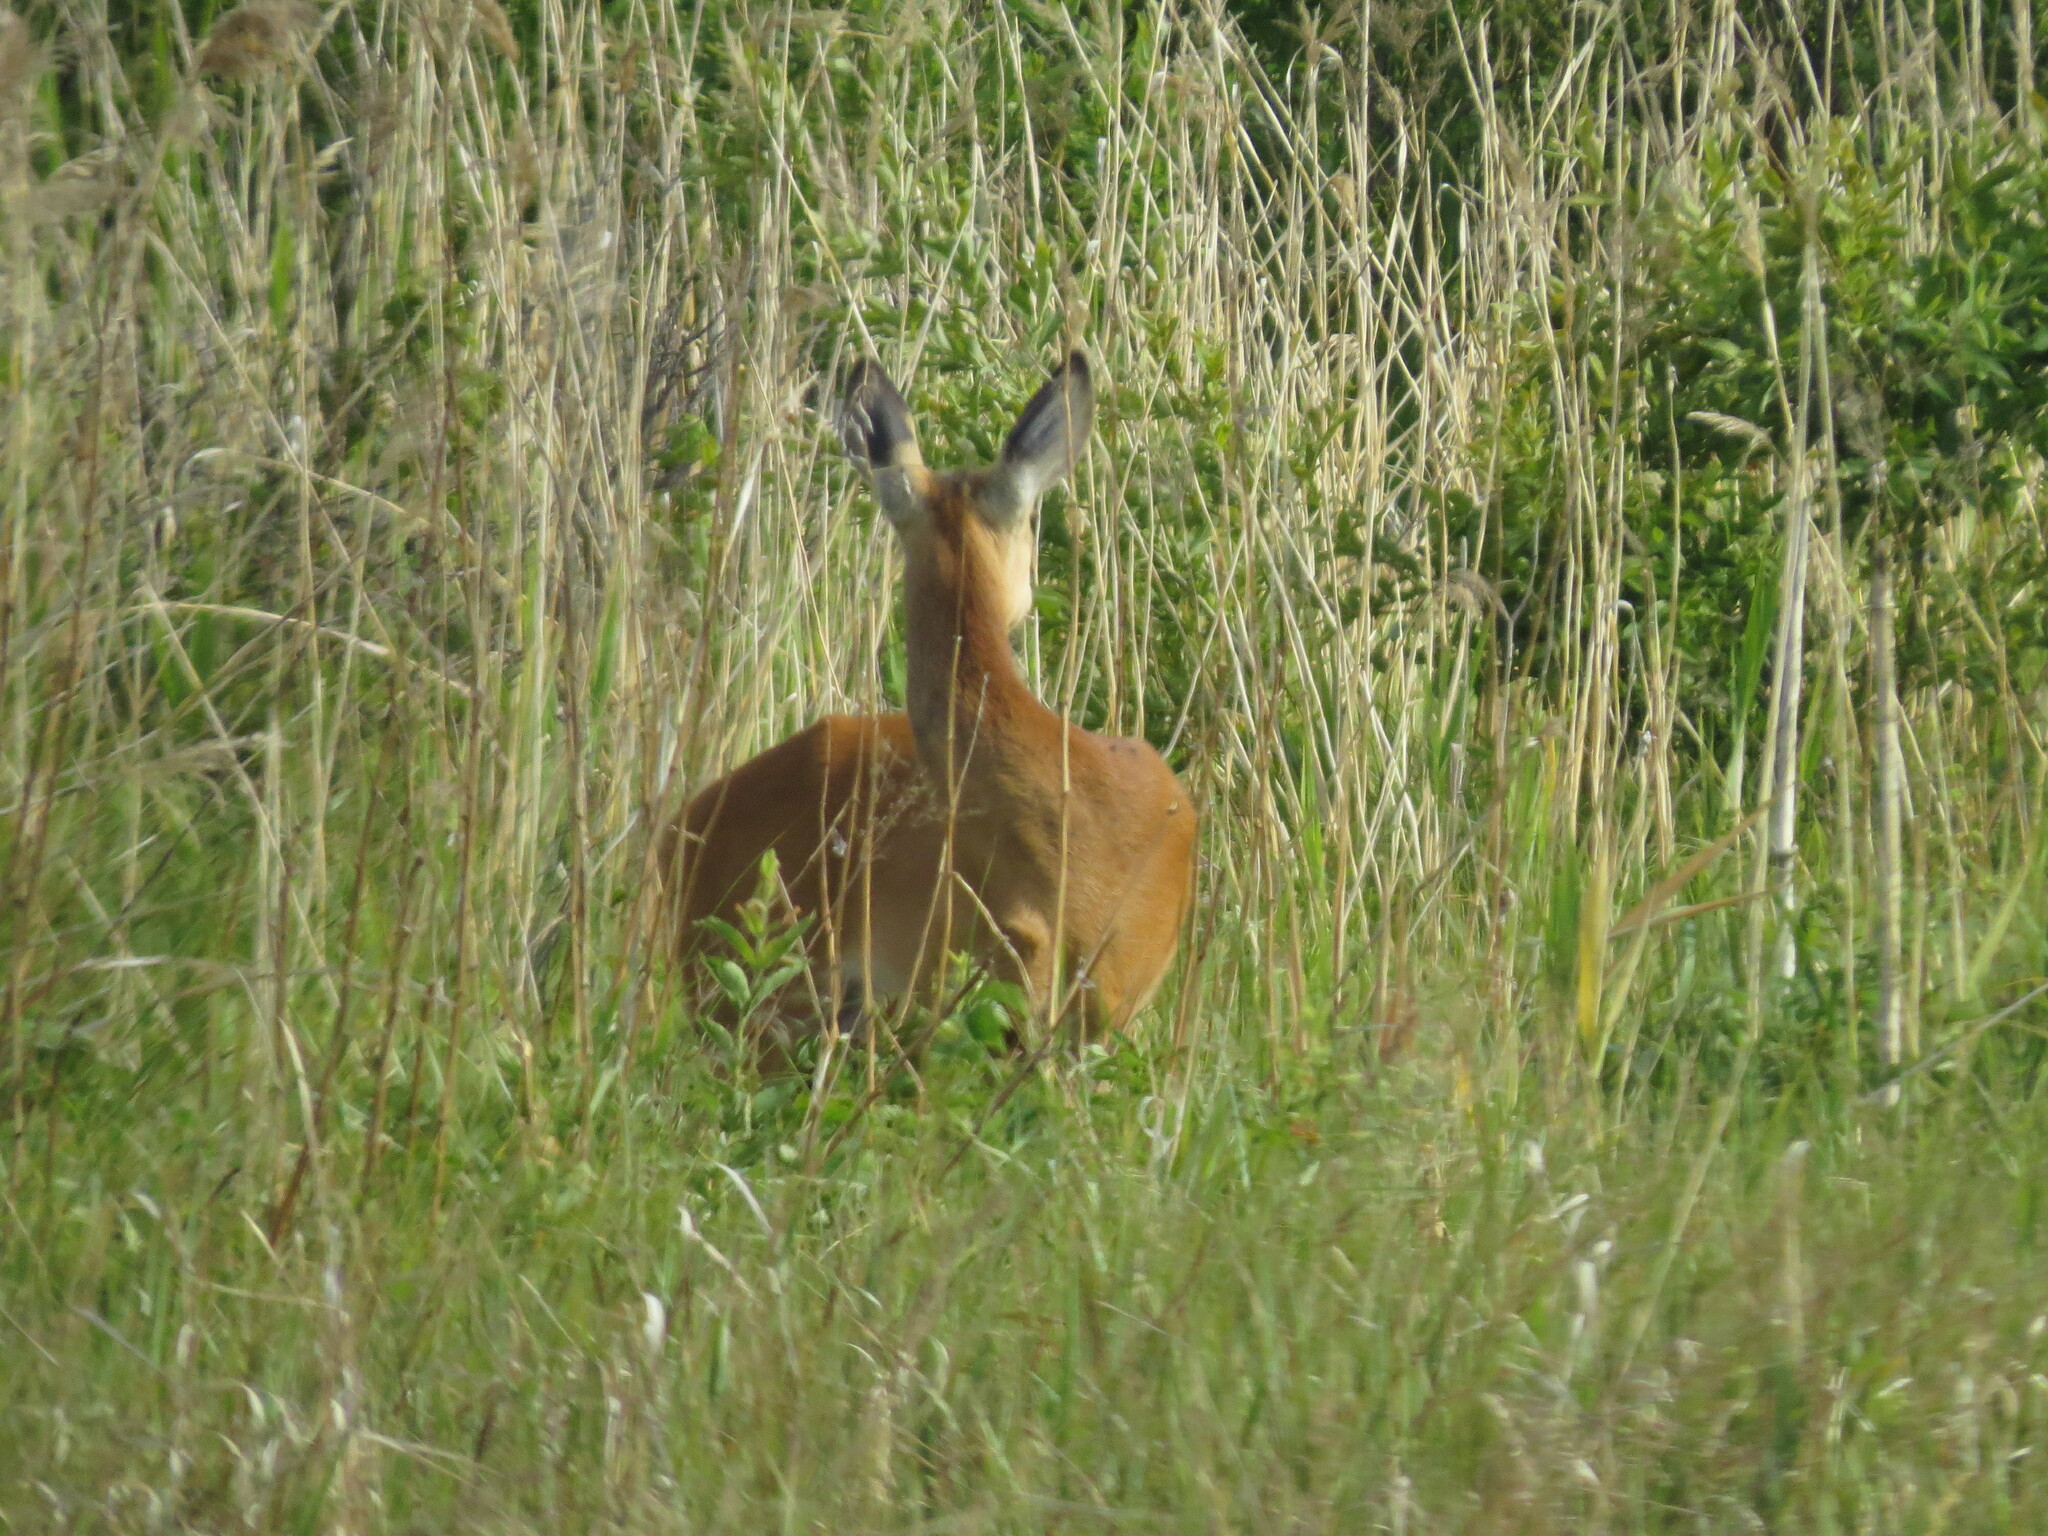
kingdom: Animalia
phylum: Chordata
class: Mammalia
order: Artiodactyla
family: Cervidae
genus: Capreolus
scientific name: Capreolus pygargus
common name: Siberian roe
